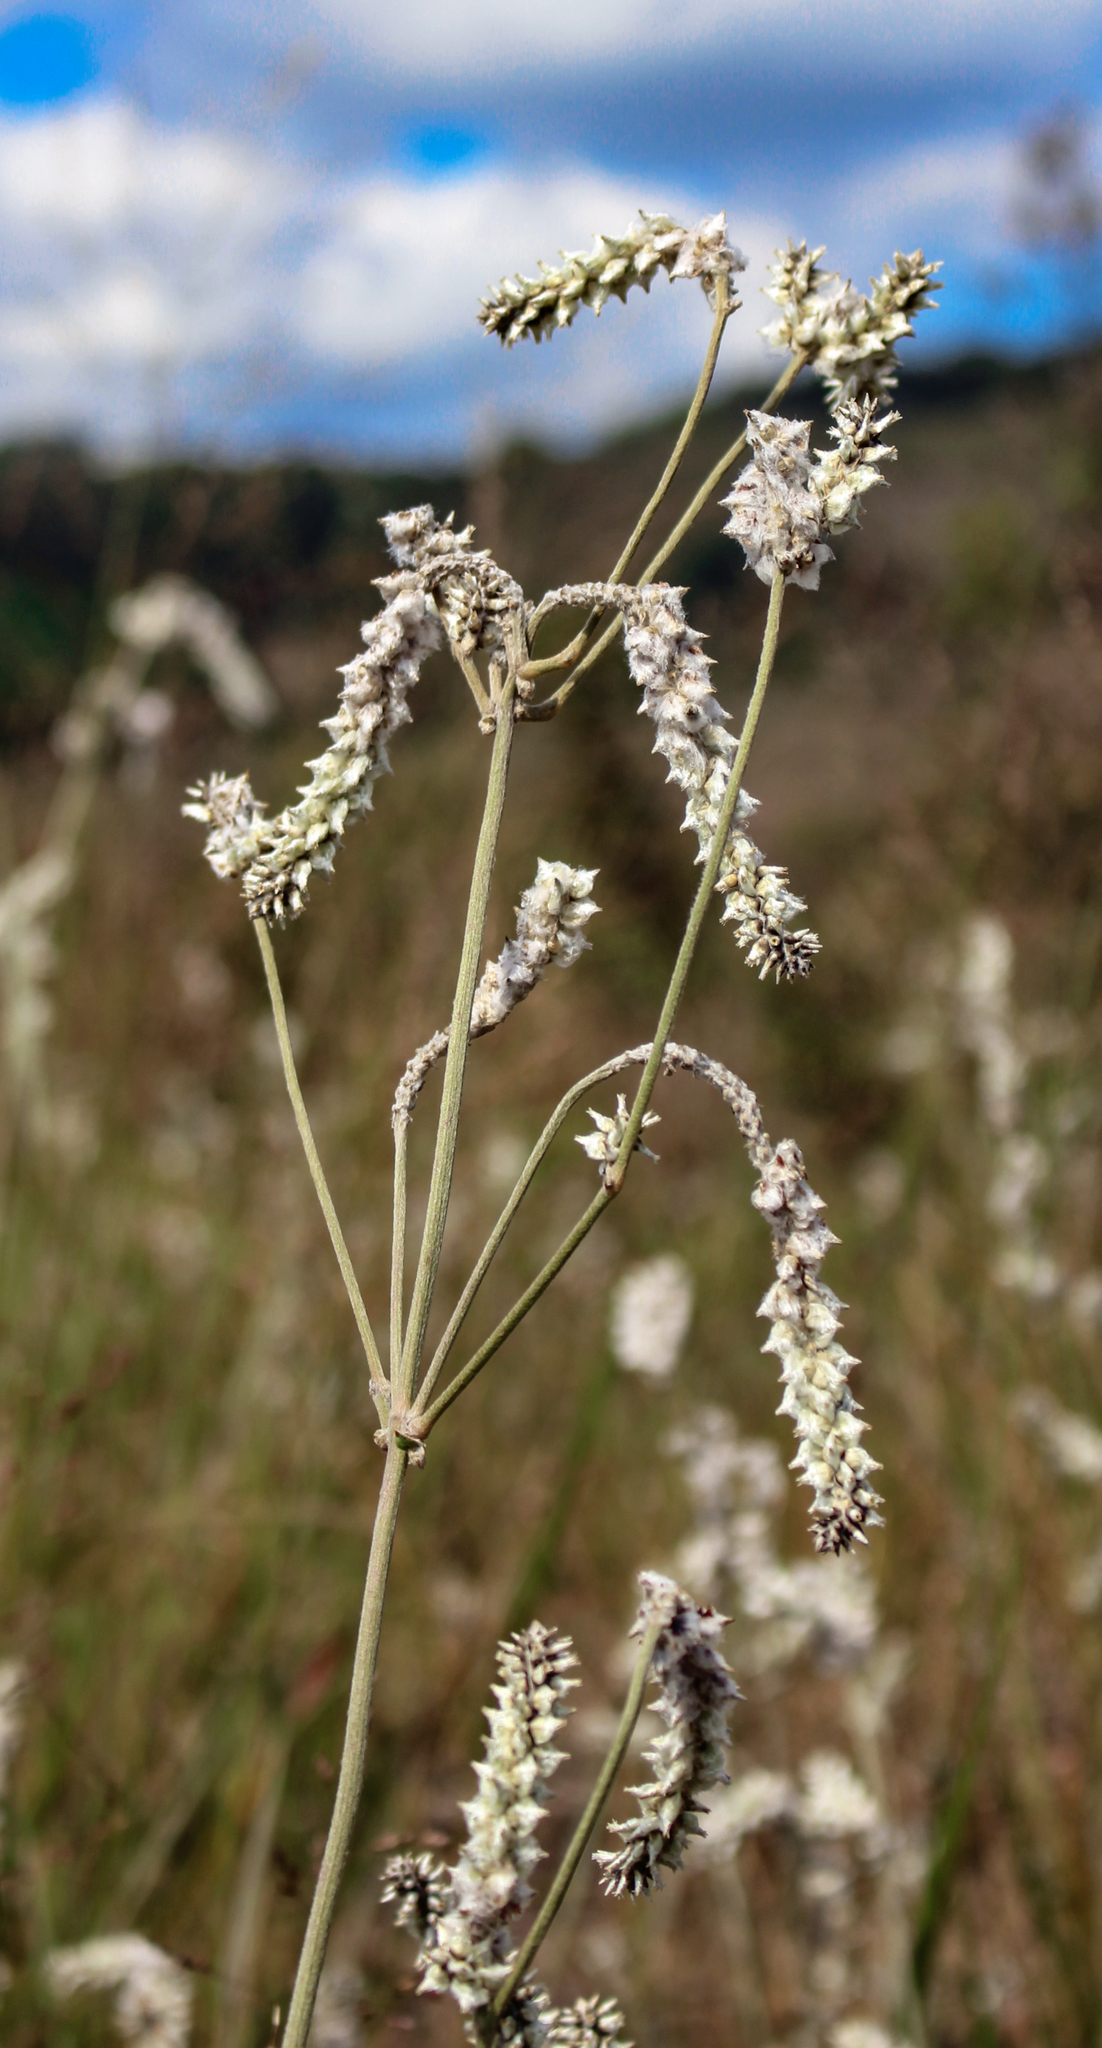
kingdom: Plantae
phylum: Tracheophyta
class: Magnoliopsida
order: Caryophyllales
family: Amaranthaceae
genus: Froelichia
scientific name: Froelichia floridana
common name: Florida snake-cotton
